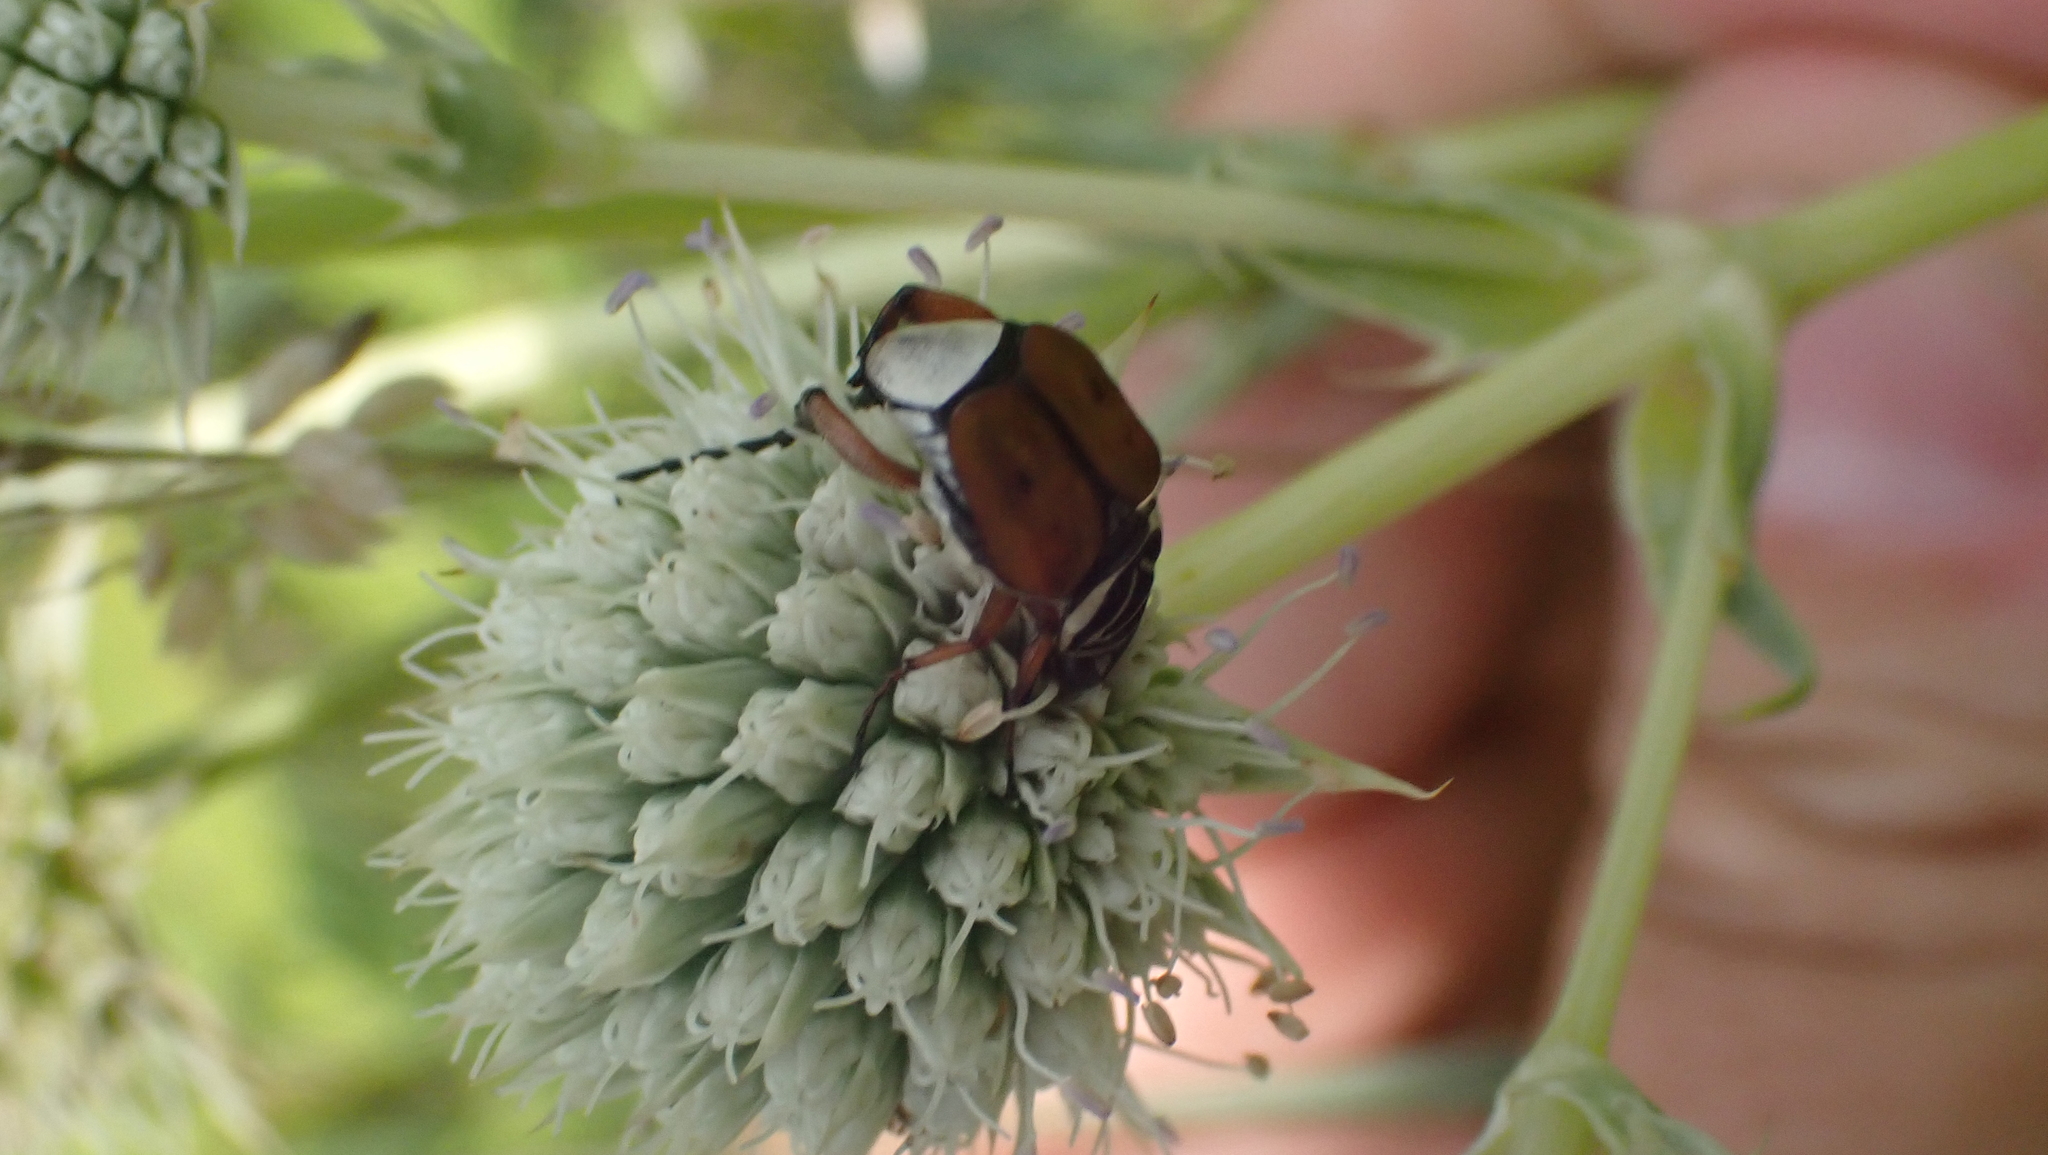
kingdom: Animalia
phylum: Arthropoda
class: Insecta
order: Coleoptera
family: Scarabaeidae
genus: Trigonopeltastes
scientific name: Trigonopeltastes delta
